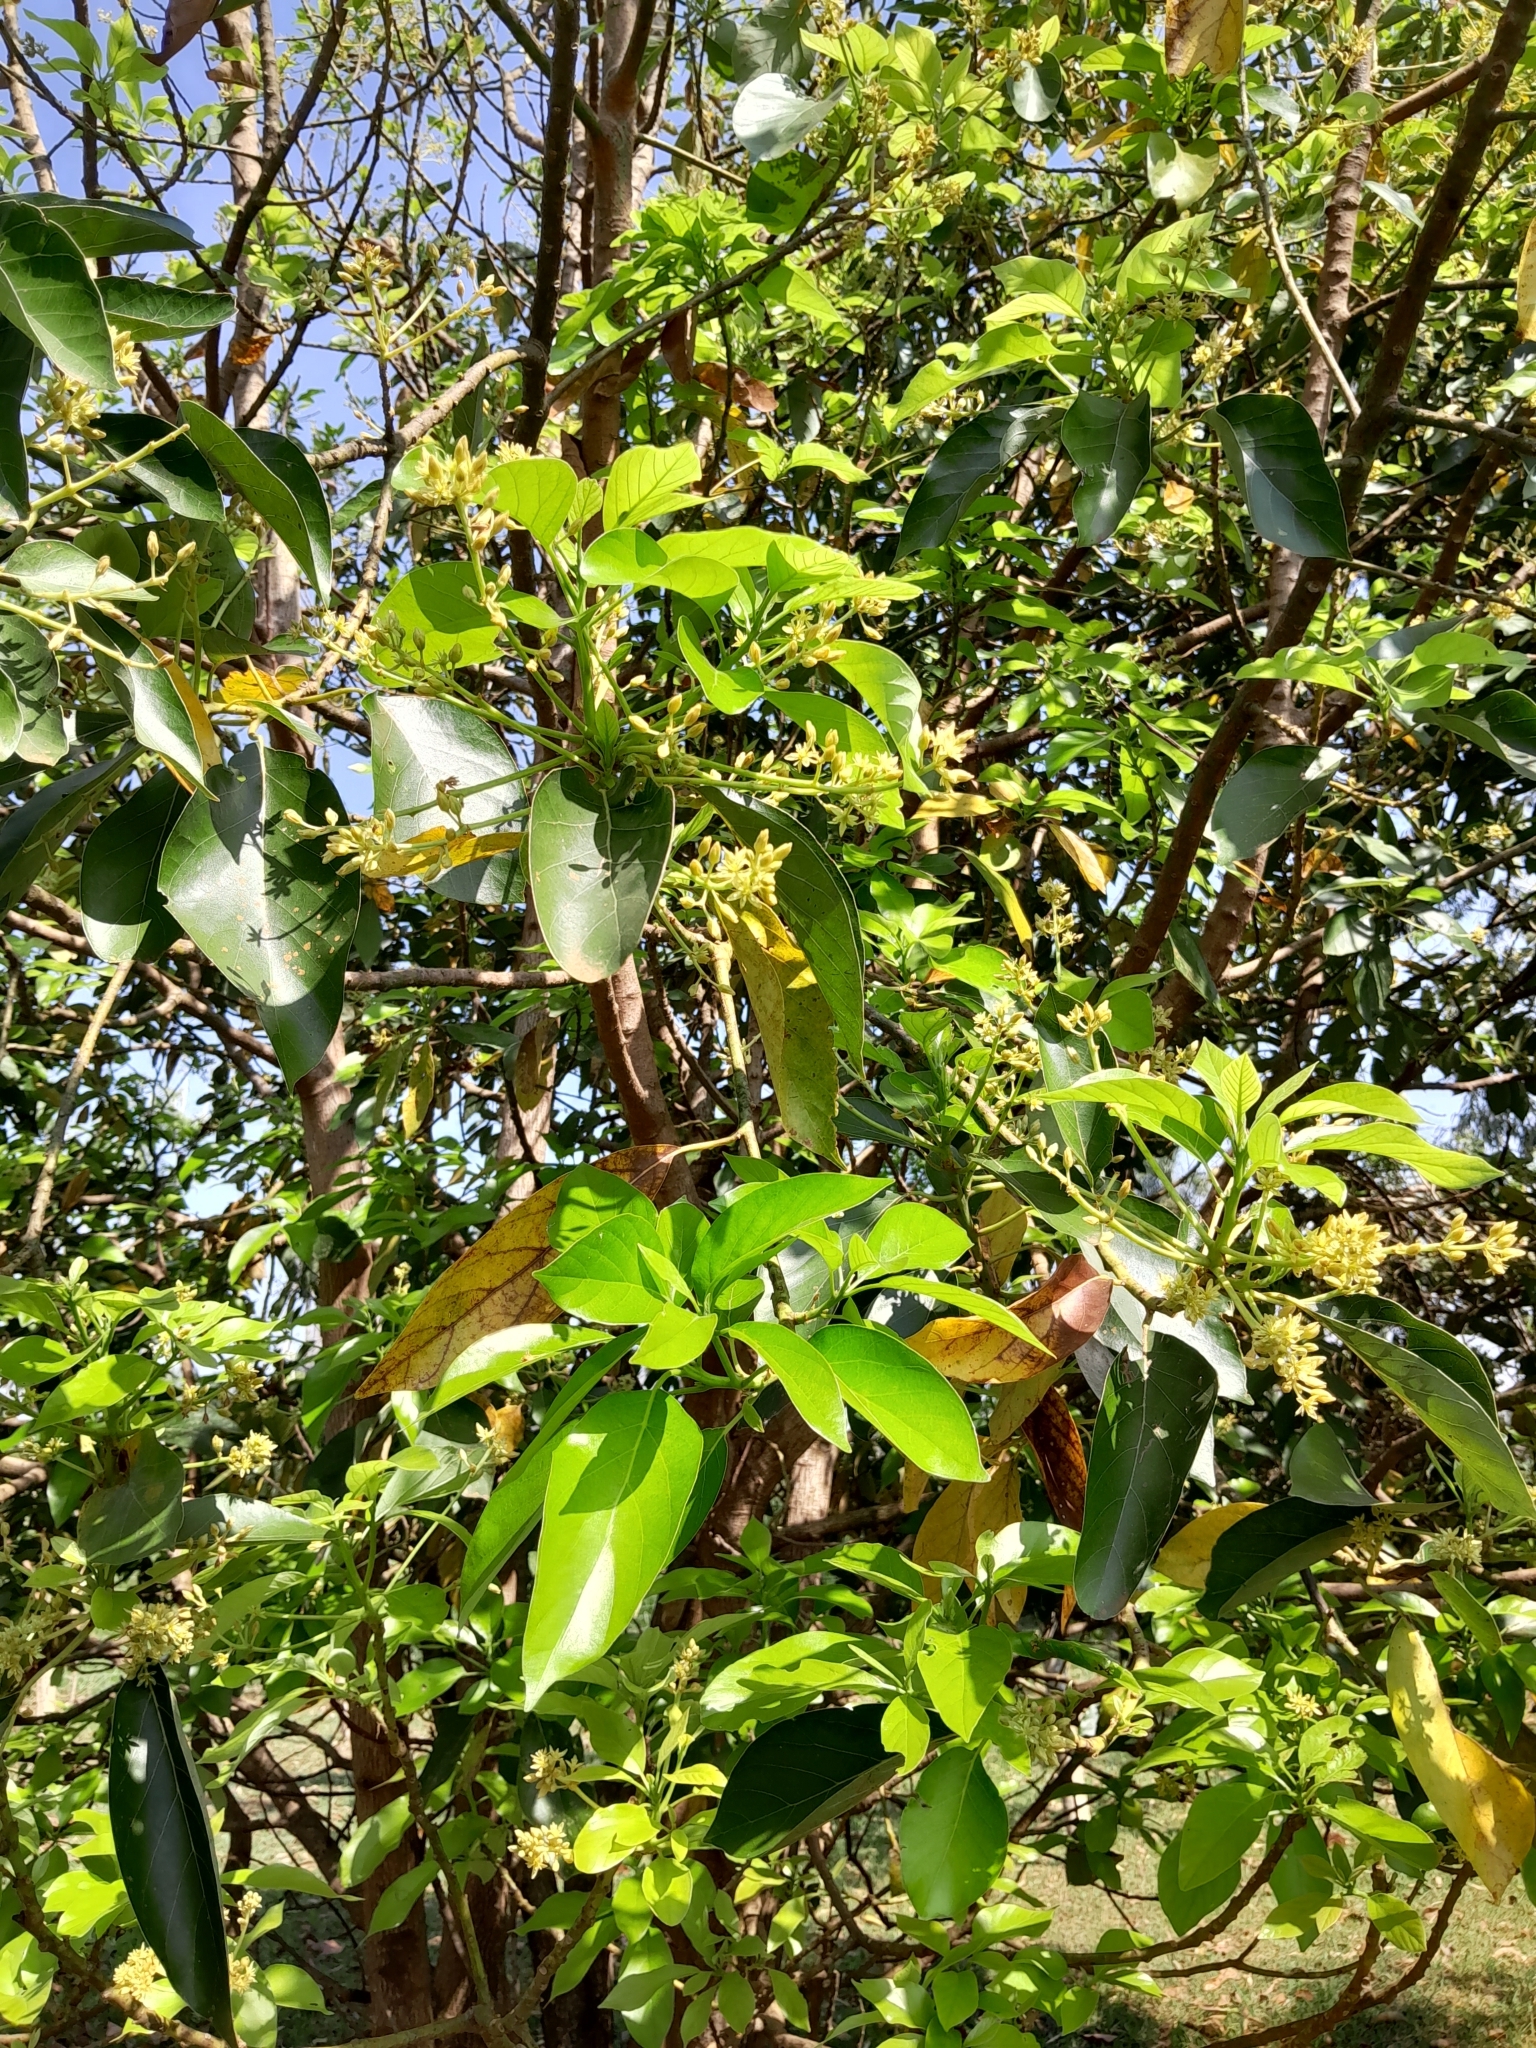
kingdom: Plantae
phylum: Tracheophyta
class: Magnoliopsida
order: Laurales
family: Lauraceae
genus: Persea
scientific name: Persea americana
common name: Avocado
